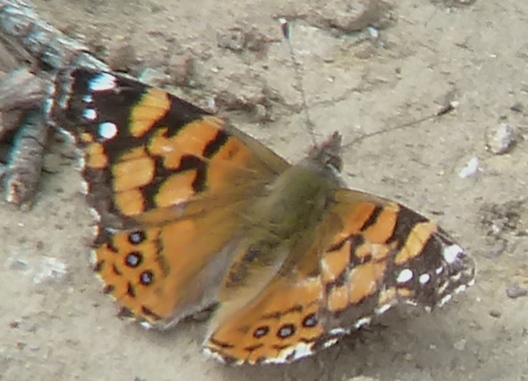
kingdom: Animalia
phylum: Arthropoda
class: Insecta
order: Lepidoptera
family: Nymphalidae
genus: Vanessa
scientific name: Vanessa annabella
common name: West coast lady
